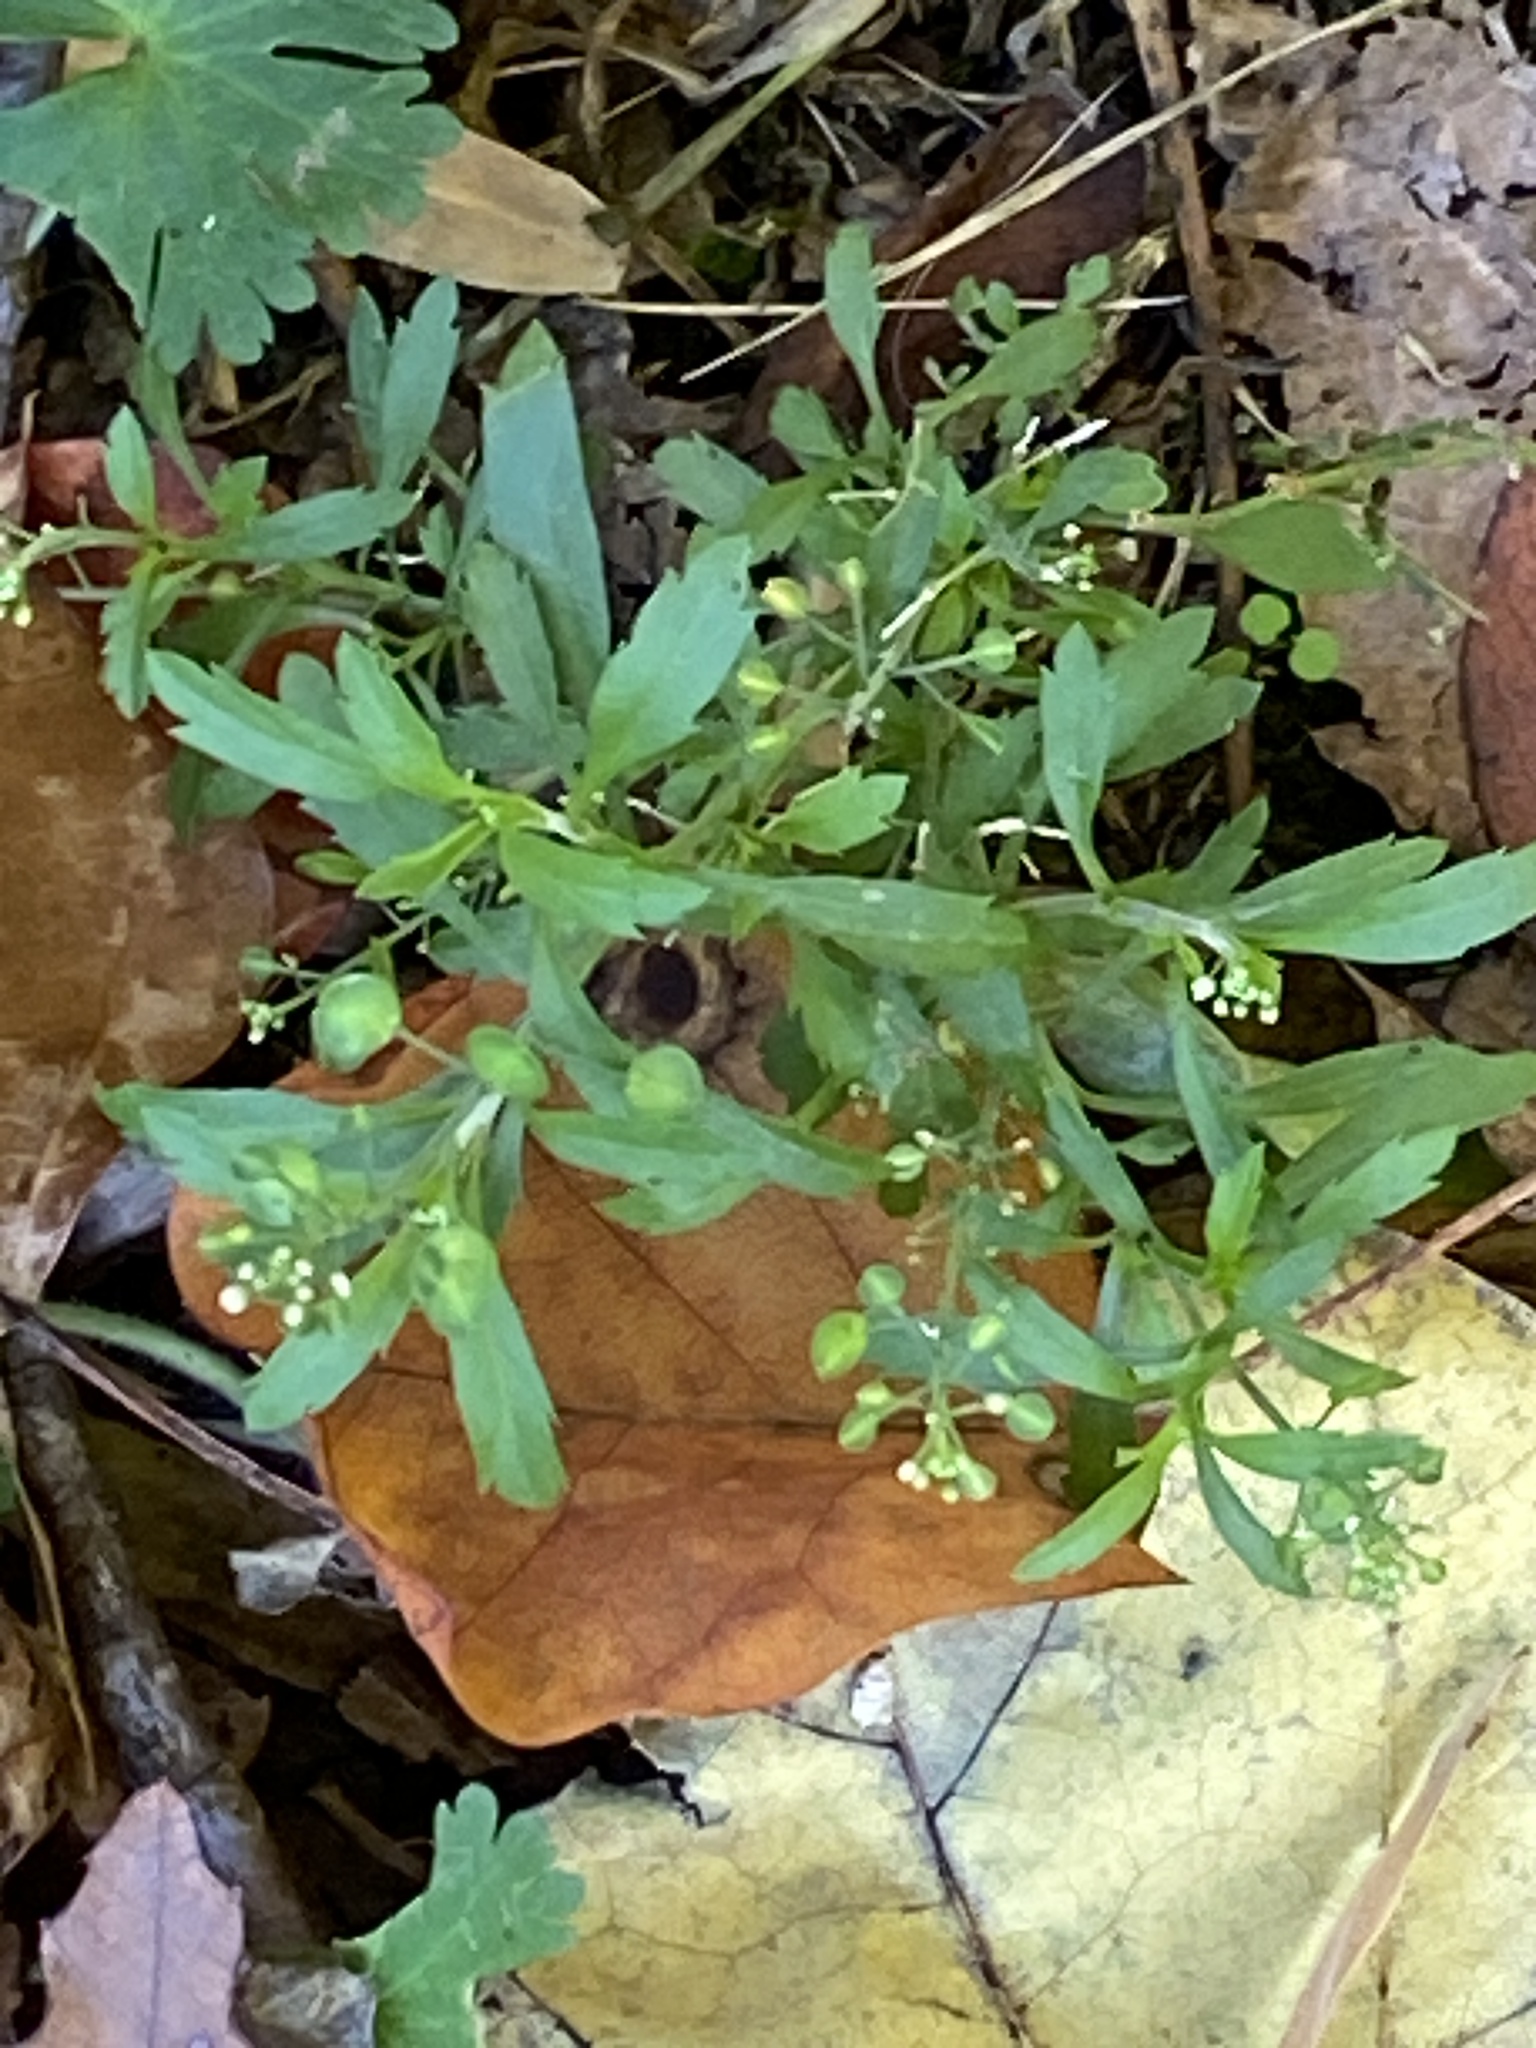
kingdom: Plantae
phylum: Tracheophyta
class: Magnoliopsida
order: Brassicales
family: Brassicaceae
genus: Lepidium
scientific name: Lepidium virginicum
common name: Least pepperwort
